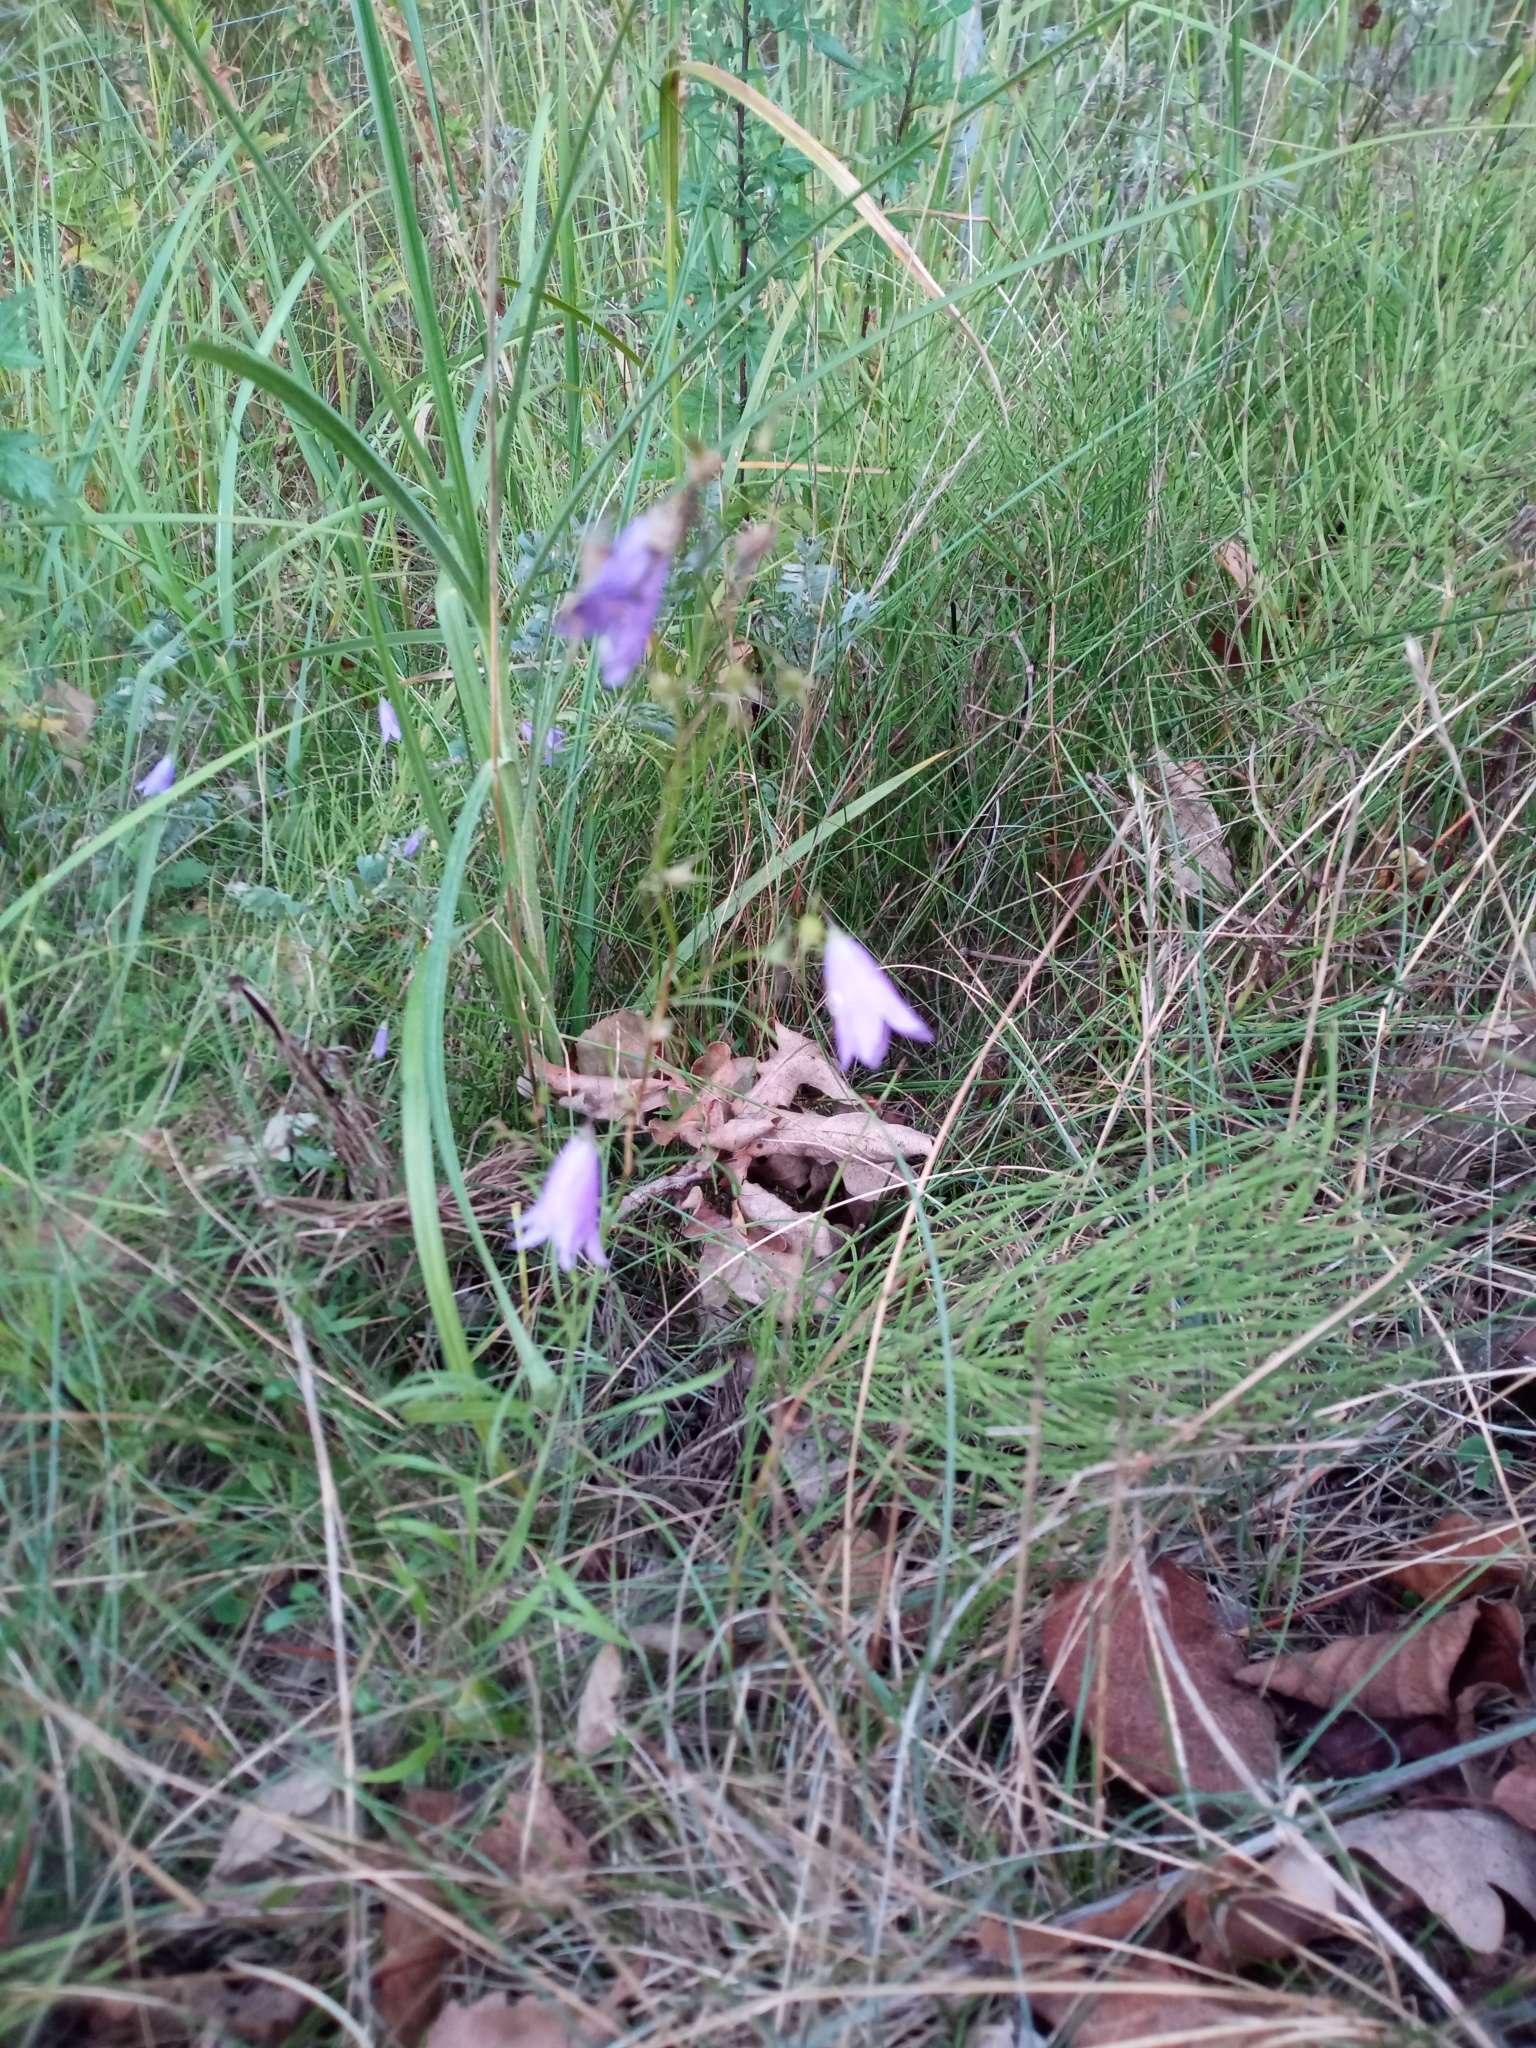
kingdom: Plantae
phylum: Tracheophyta
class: Magnoliopsida
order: Asterales
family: Campanulaceae
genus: Campanula
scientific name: Campanula rotundifolia
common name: Harebell
